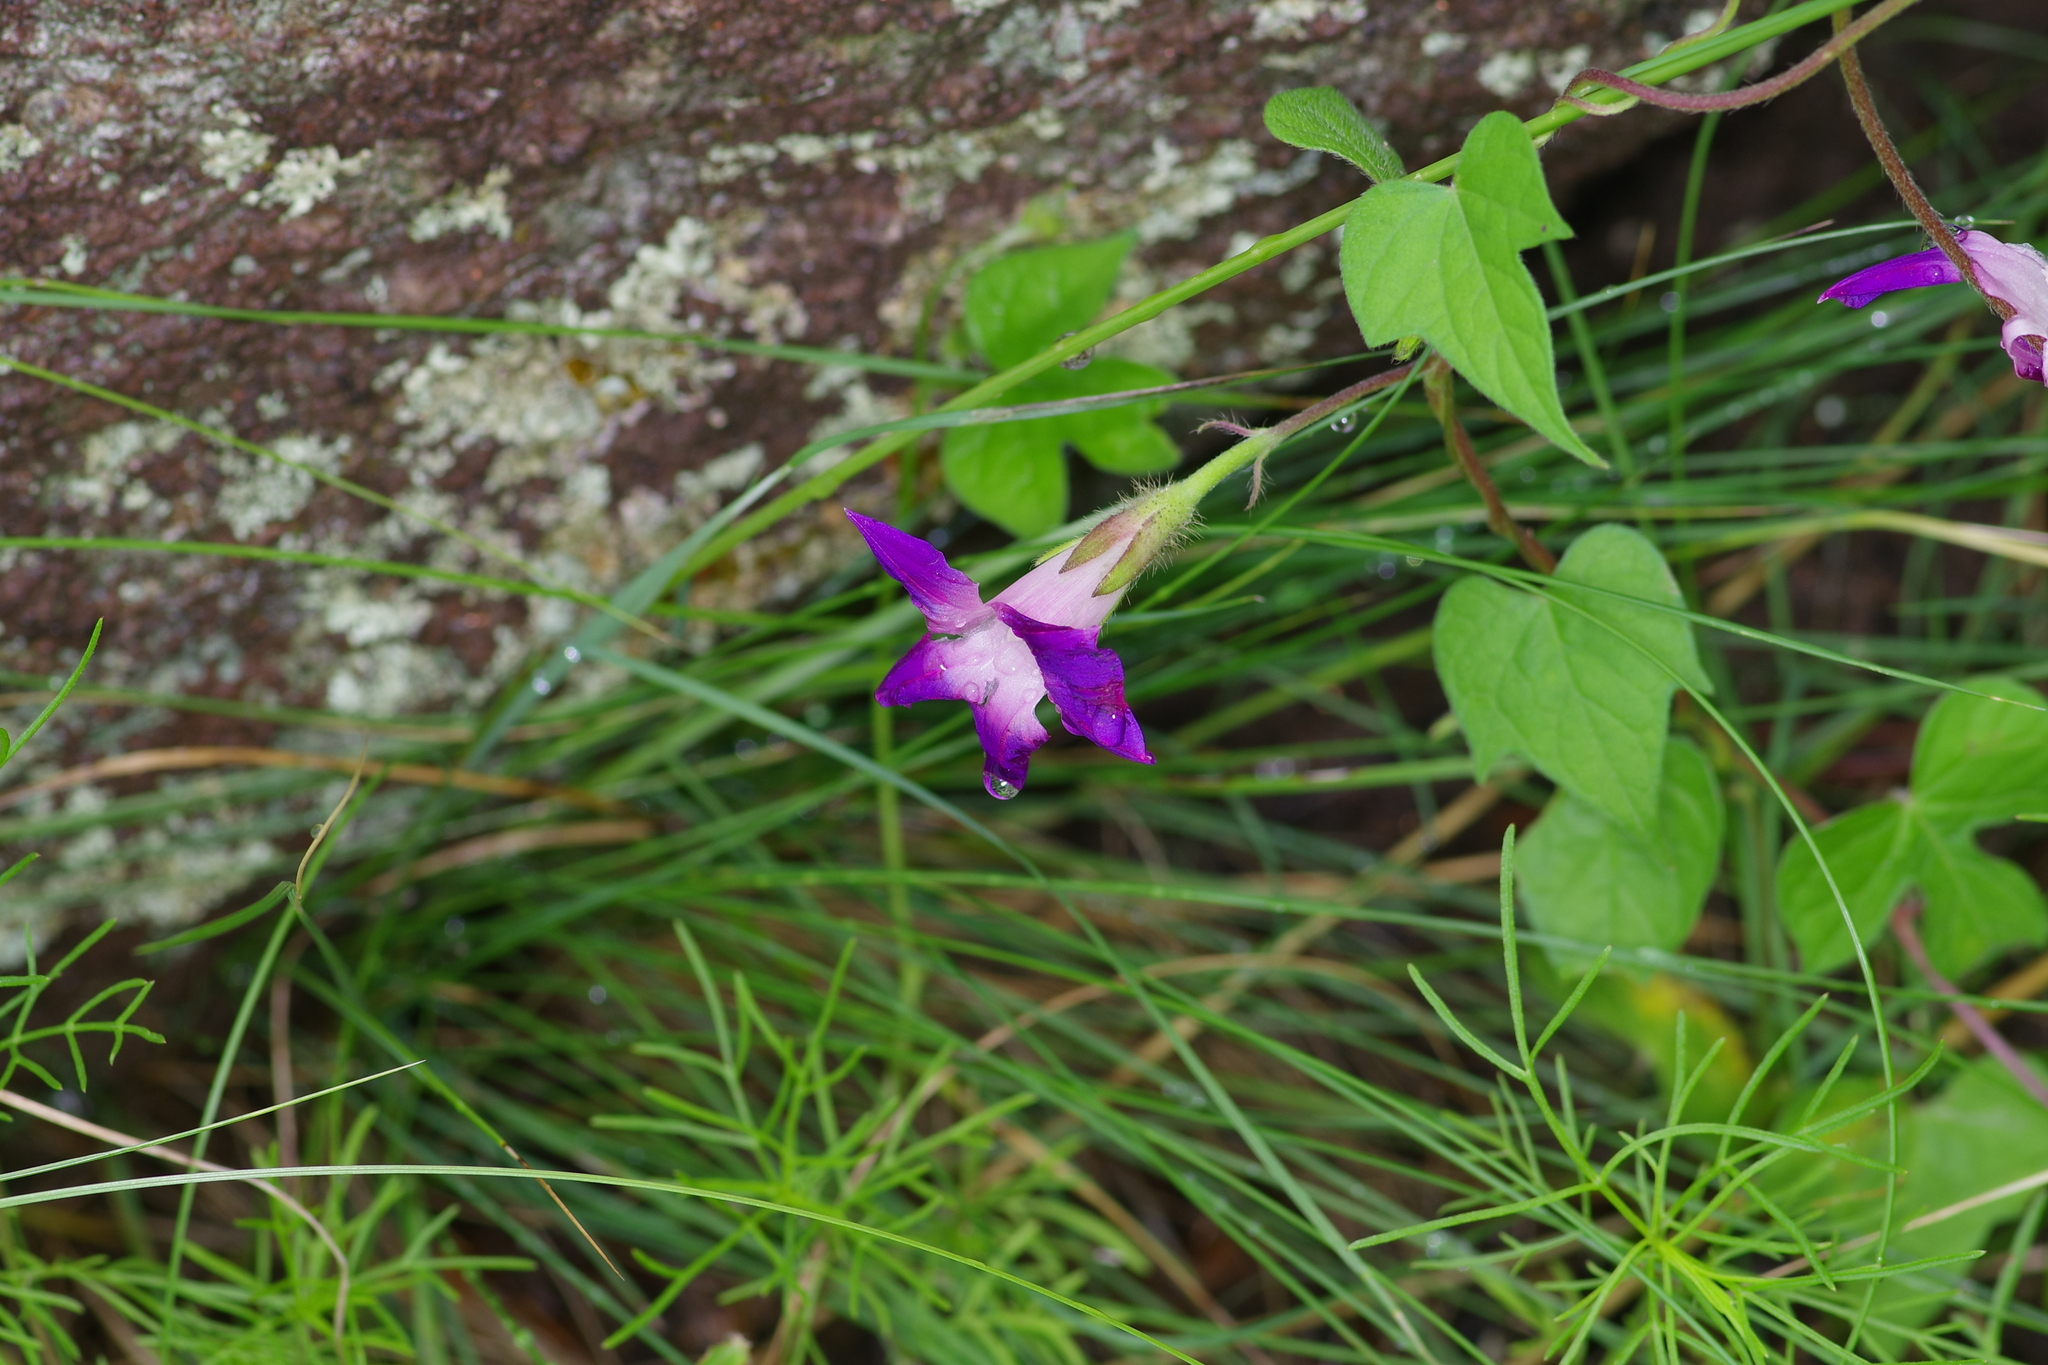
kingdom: Plantae
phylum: Tracheophyta
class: Magnoliopsida
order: Solanales
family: Convolvulaceae
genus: Ipomoea
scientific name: Ipomoea purpurea
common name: Common morning-glory
